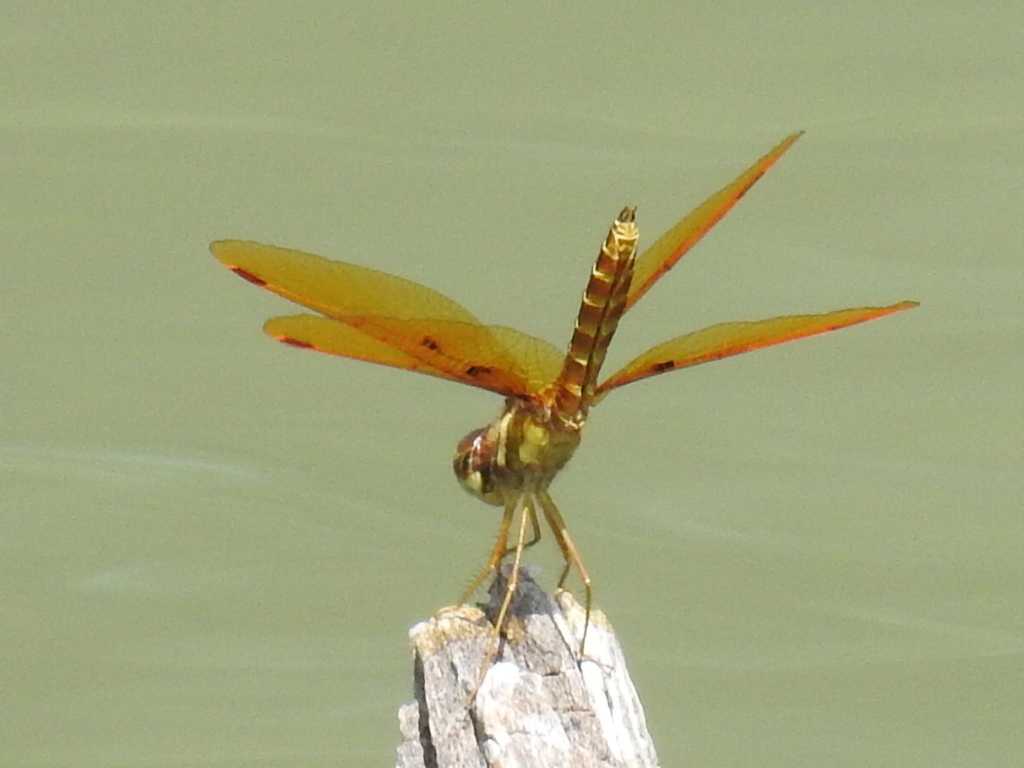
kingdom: Animalia
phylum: Arthropoda
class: Insecta
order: Odonata
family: Libellulidae
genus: Perithemis
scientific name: Perithemis tenera
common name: Eastern amberwing
